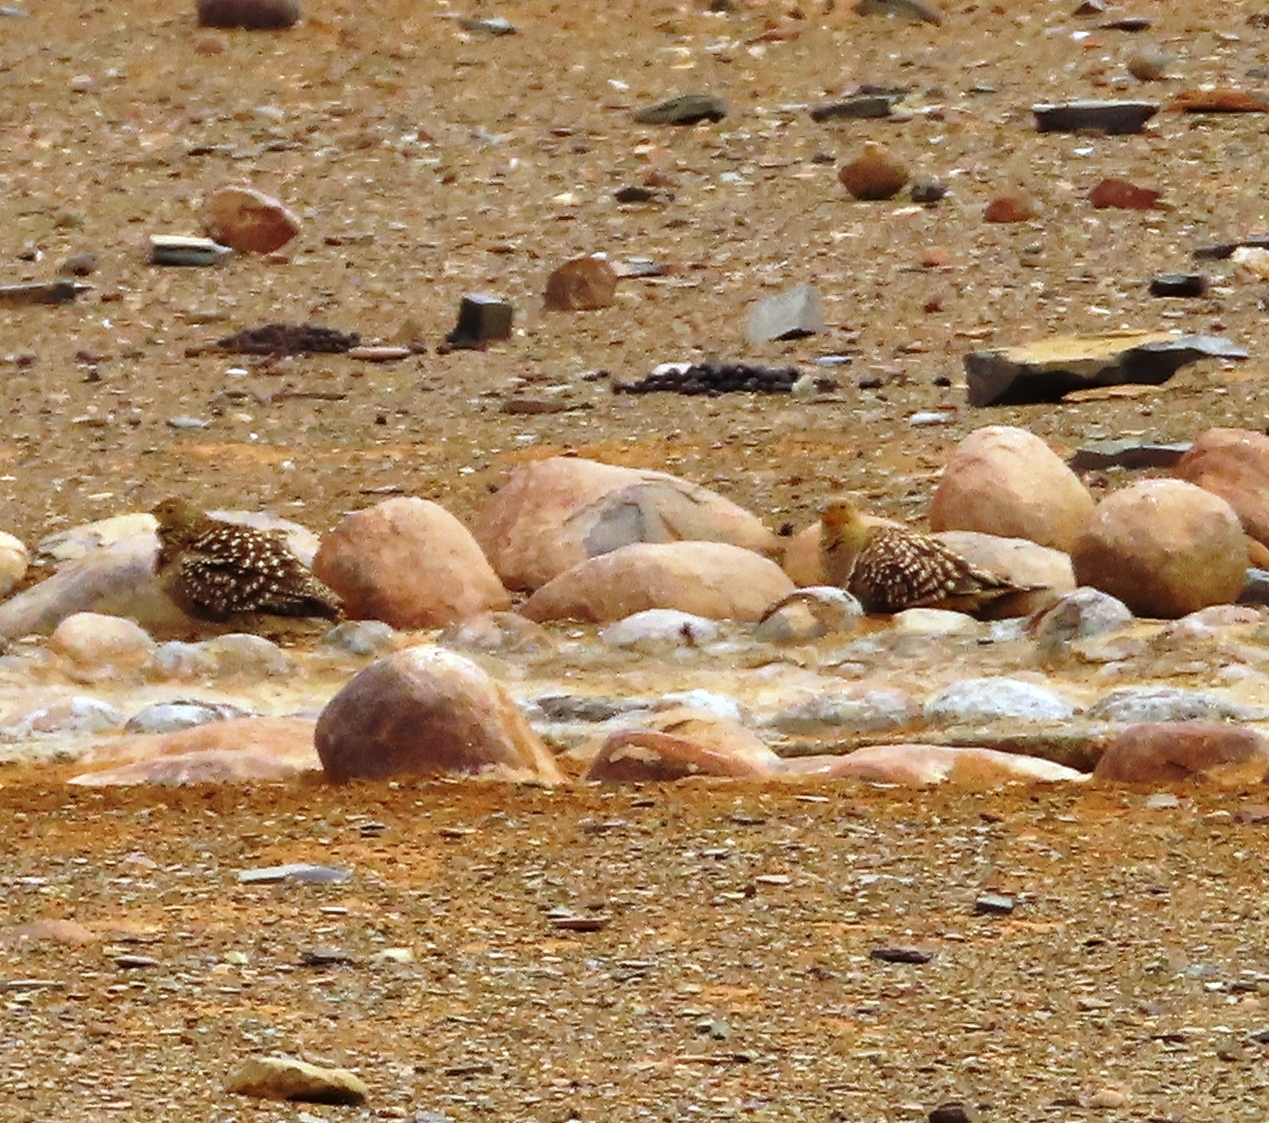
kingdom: Animalia
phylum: Chordata
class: Aves
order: Pteroclidiformes
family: Pteroclididae
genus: Pterocles
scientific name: Pterocles namaqua
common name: Namaqua sandgrouse
